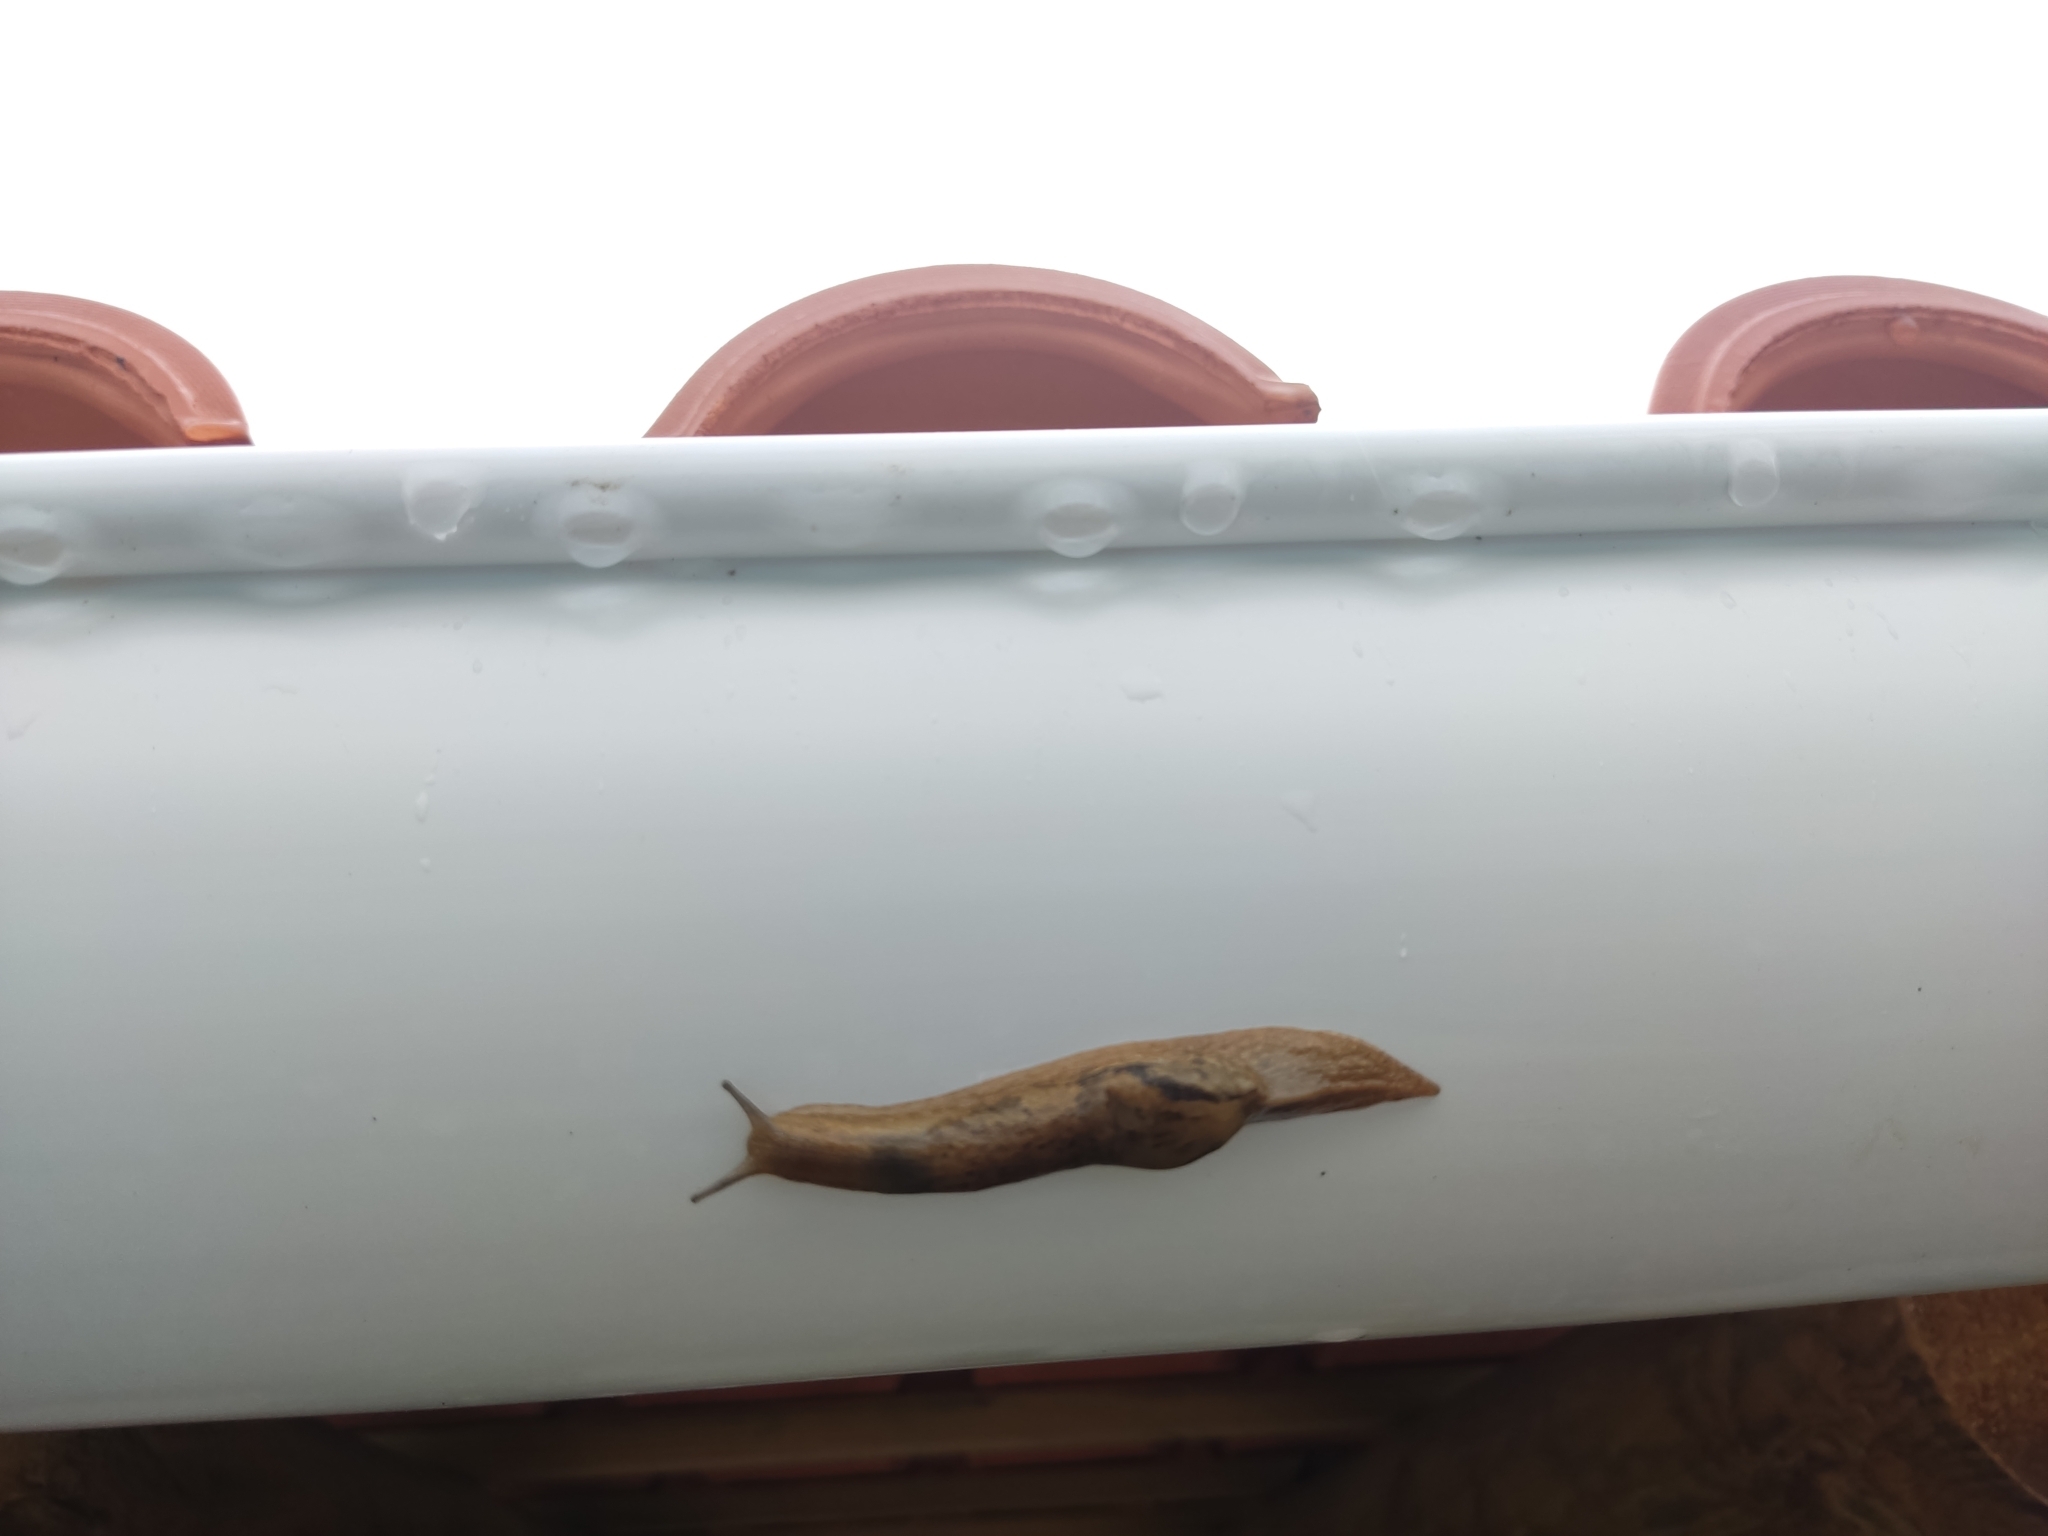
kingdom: Animalia
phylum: Mollusca
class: Gastropoda
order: Stylommatophora
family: Parmacellidae
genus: Drusia
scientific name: Drusia valenciennii
